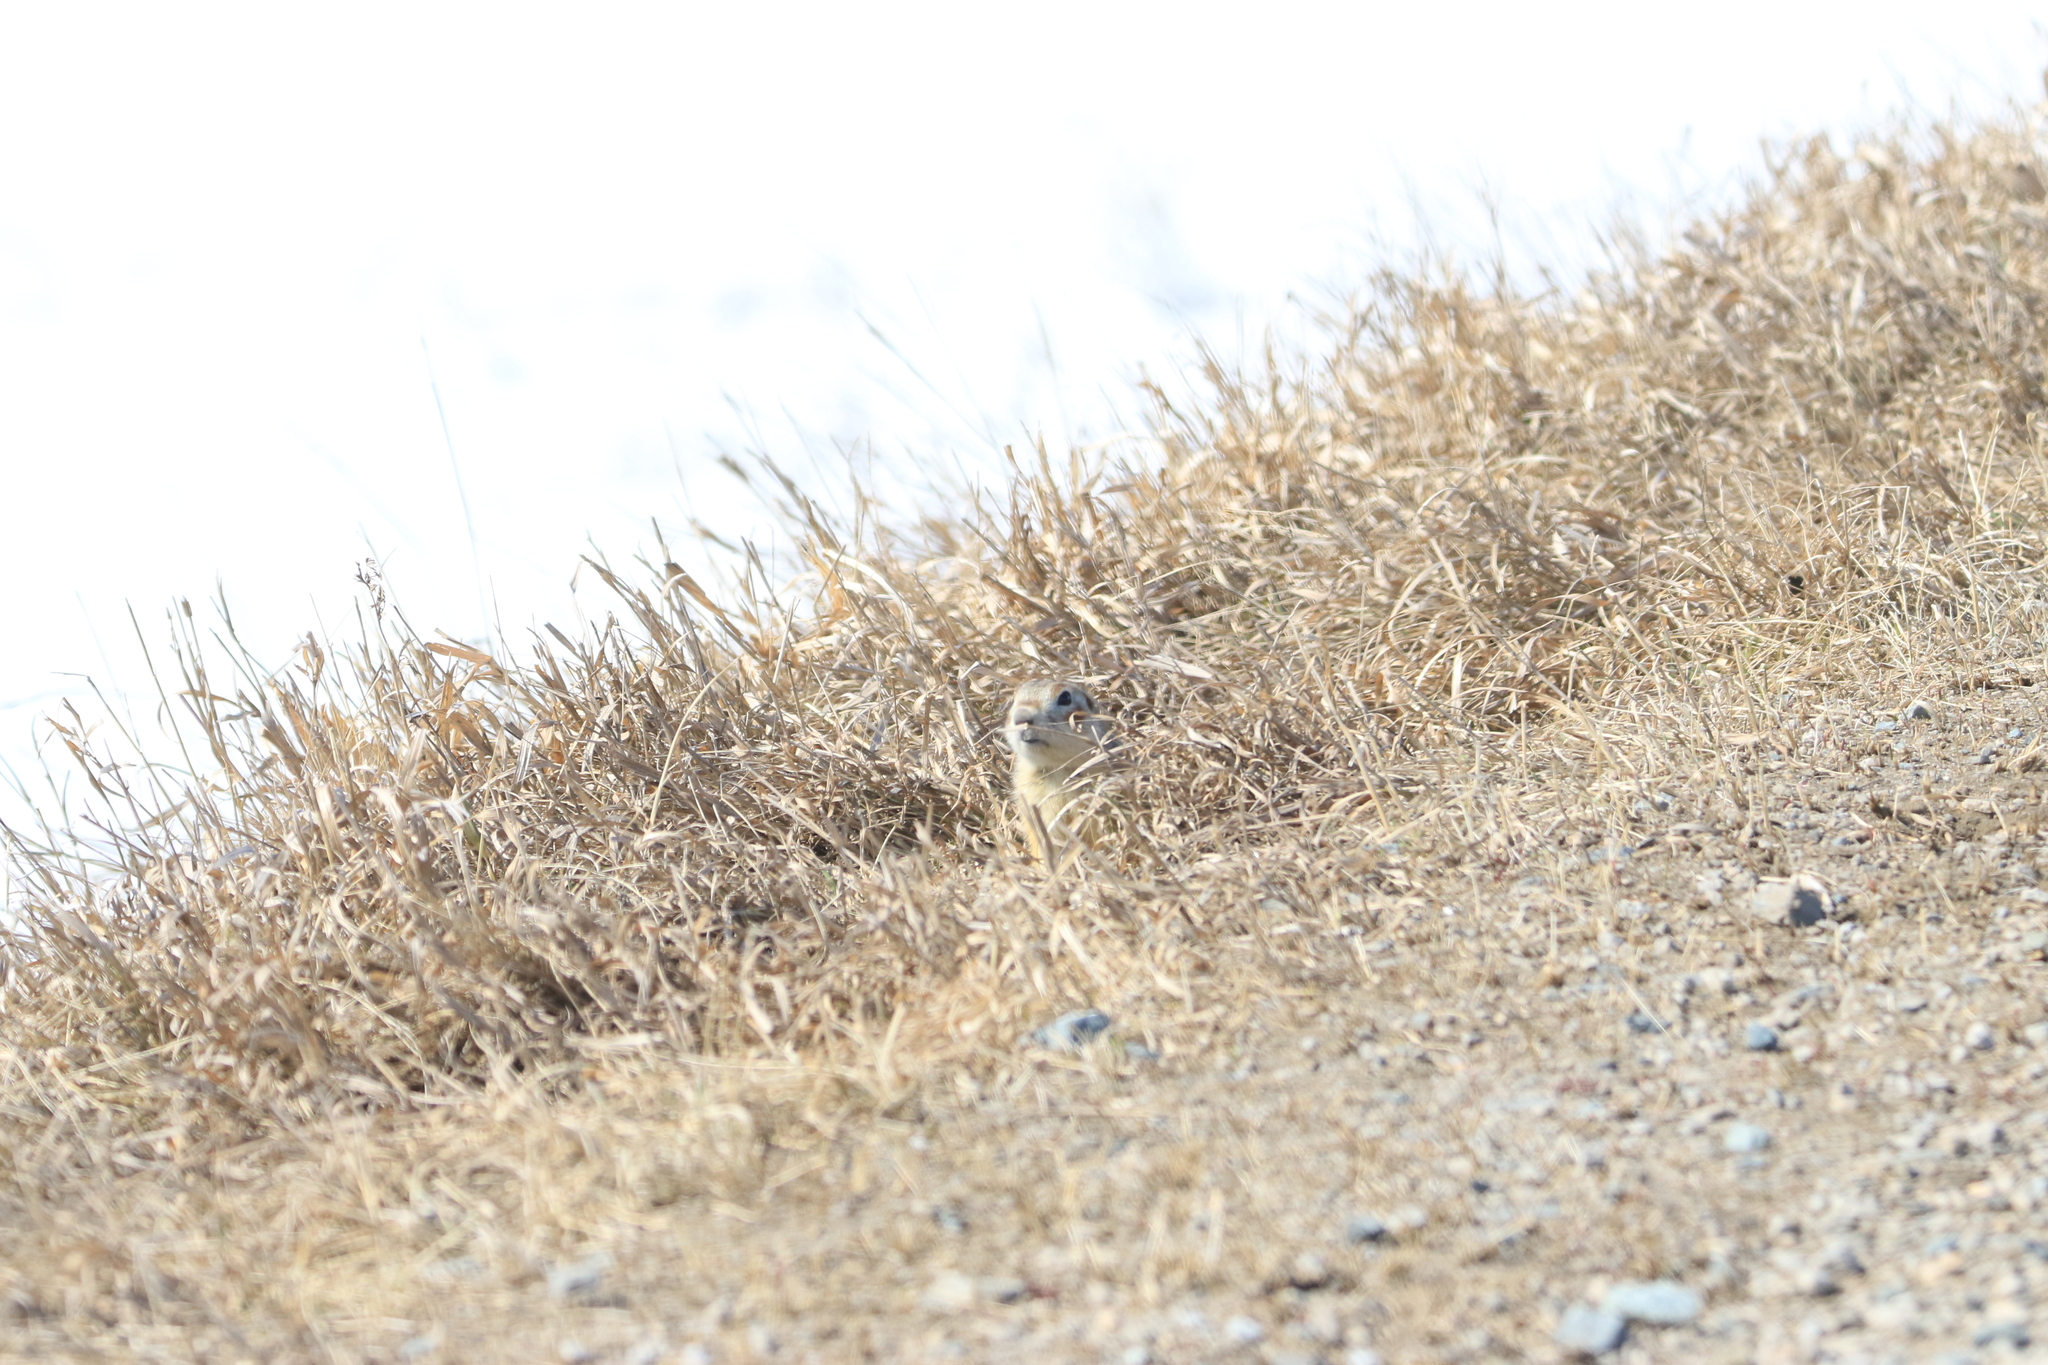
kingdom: Animalia
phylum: Chordata
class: Mammalia
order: Rodentia
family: Sciuridae
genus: Spermophilus
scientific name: Spermophilus erythrogenys
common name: Red-cheeked ground squirrel
